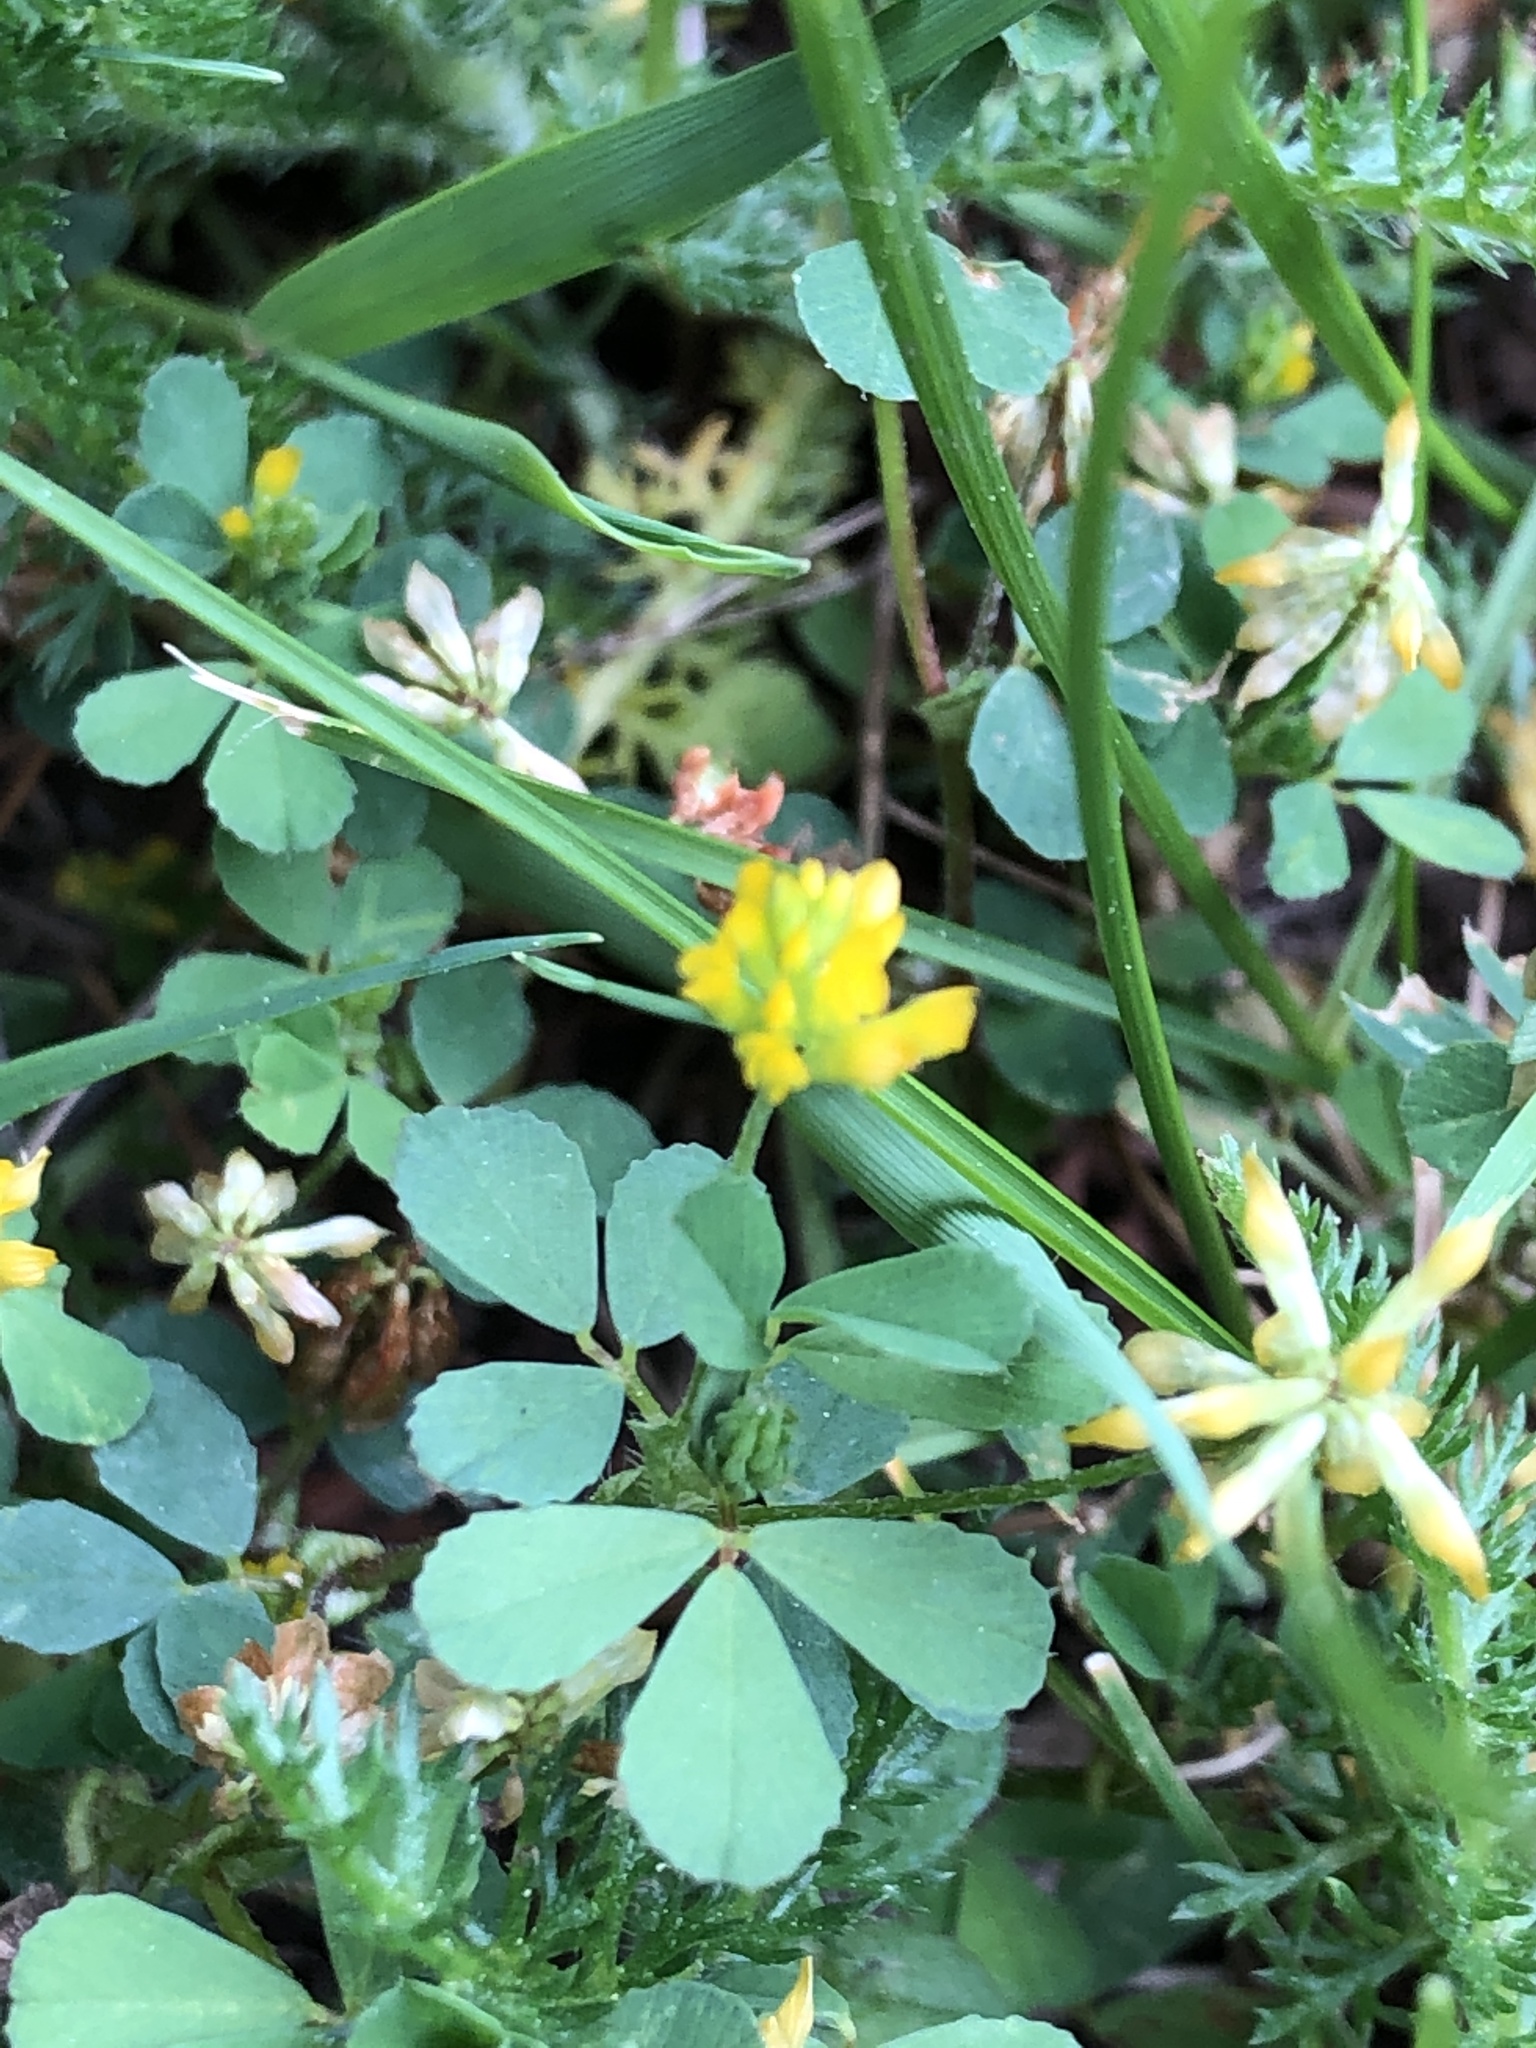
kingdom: Plantae
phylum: Tracheophyta
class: Magnoliopsida
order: Fabales
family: Fabaceae
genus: Trifolium
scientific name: Trifolium dubium
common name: Suckling clover
